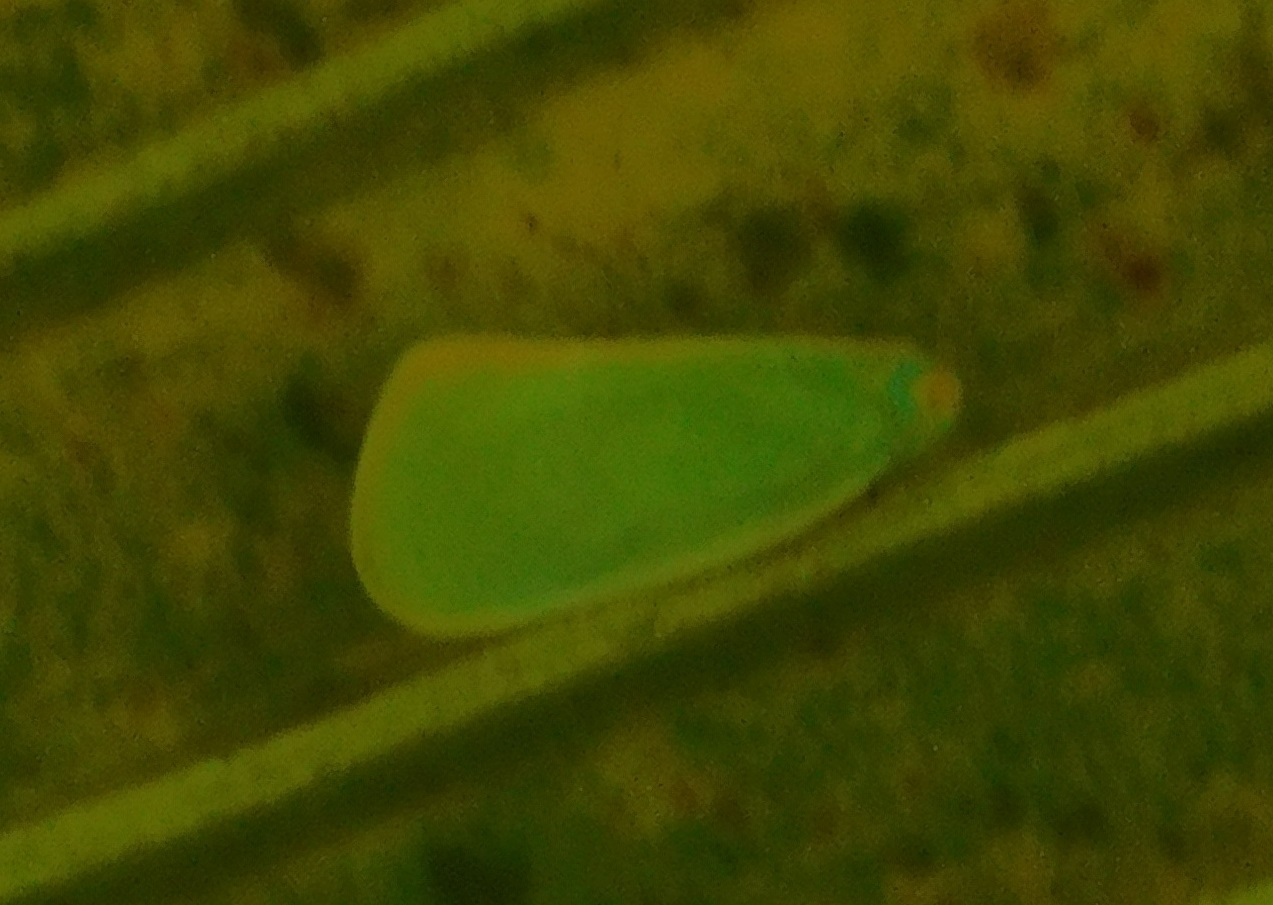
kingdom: Animalia
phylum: Arthropoda
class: Insecta
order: Hemiptera
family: Flatidae
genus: Ormenaria
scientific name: Ormenaria rufifascia
